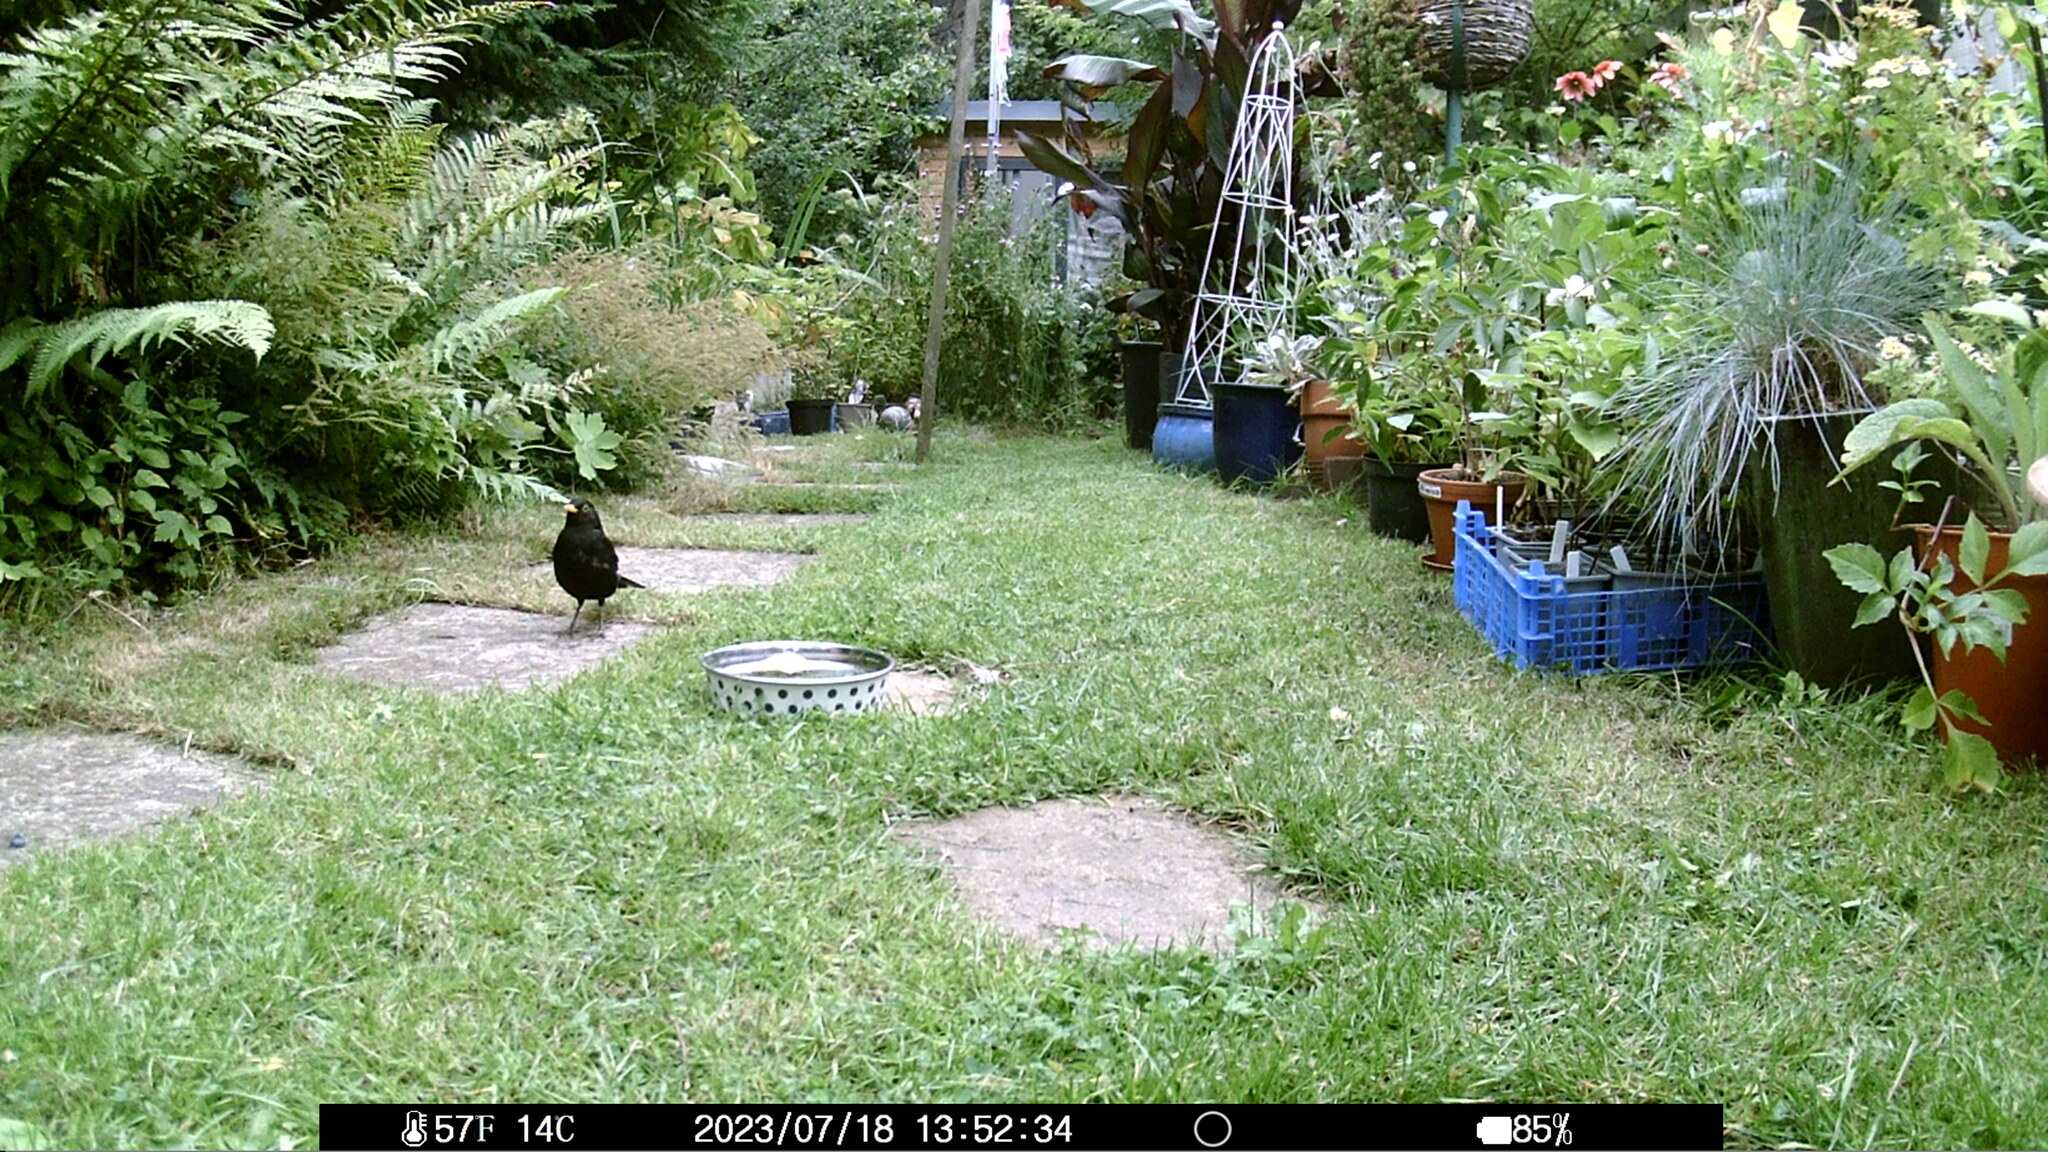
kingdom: Animalia
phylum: Chordata
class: Aves
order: Passeriformes
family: Turdidae
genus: Turdus
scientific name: Turdus merula
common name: Common blackbird
